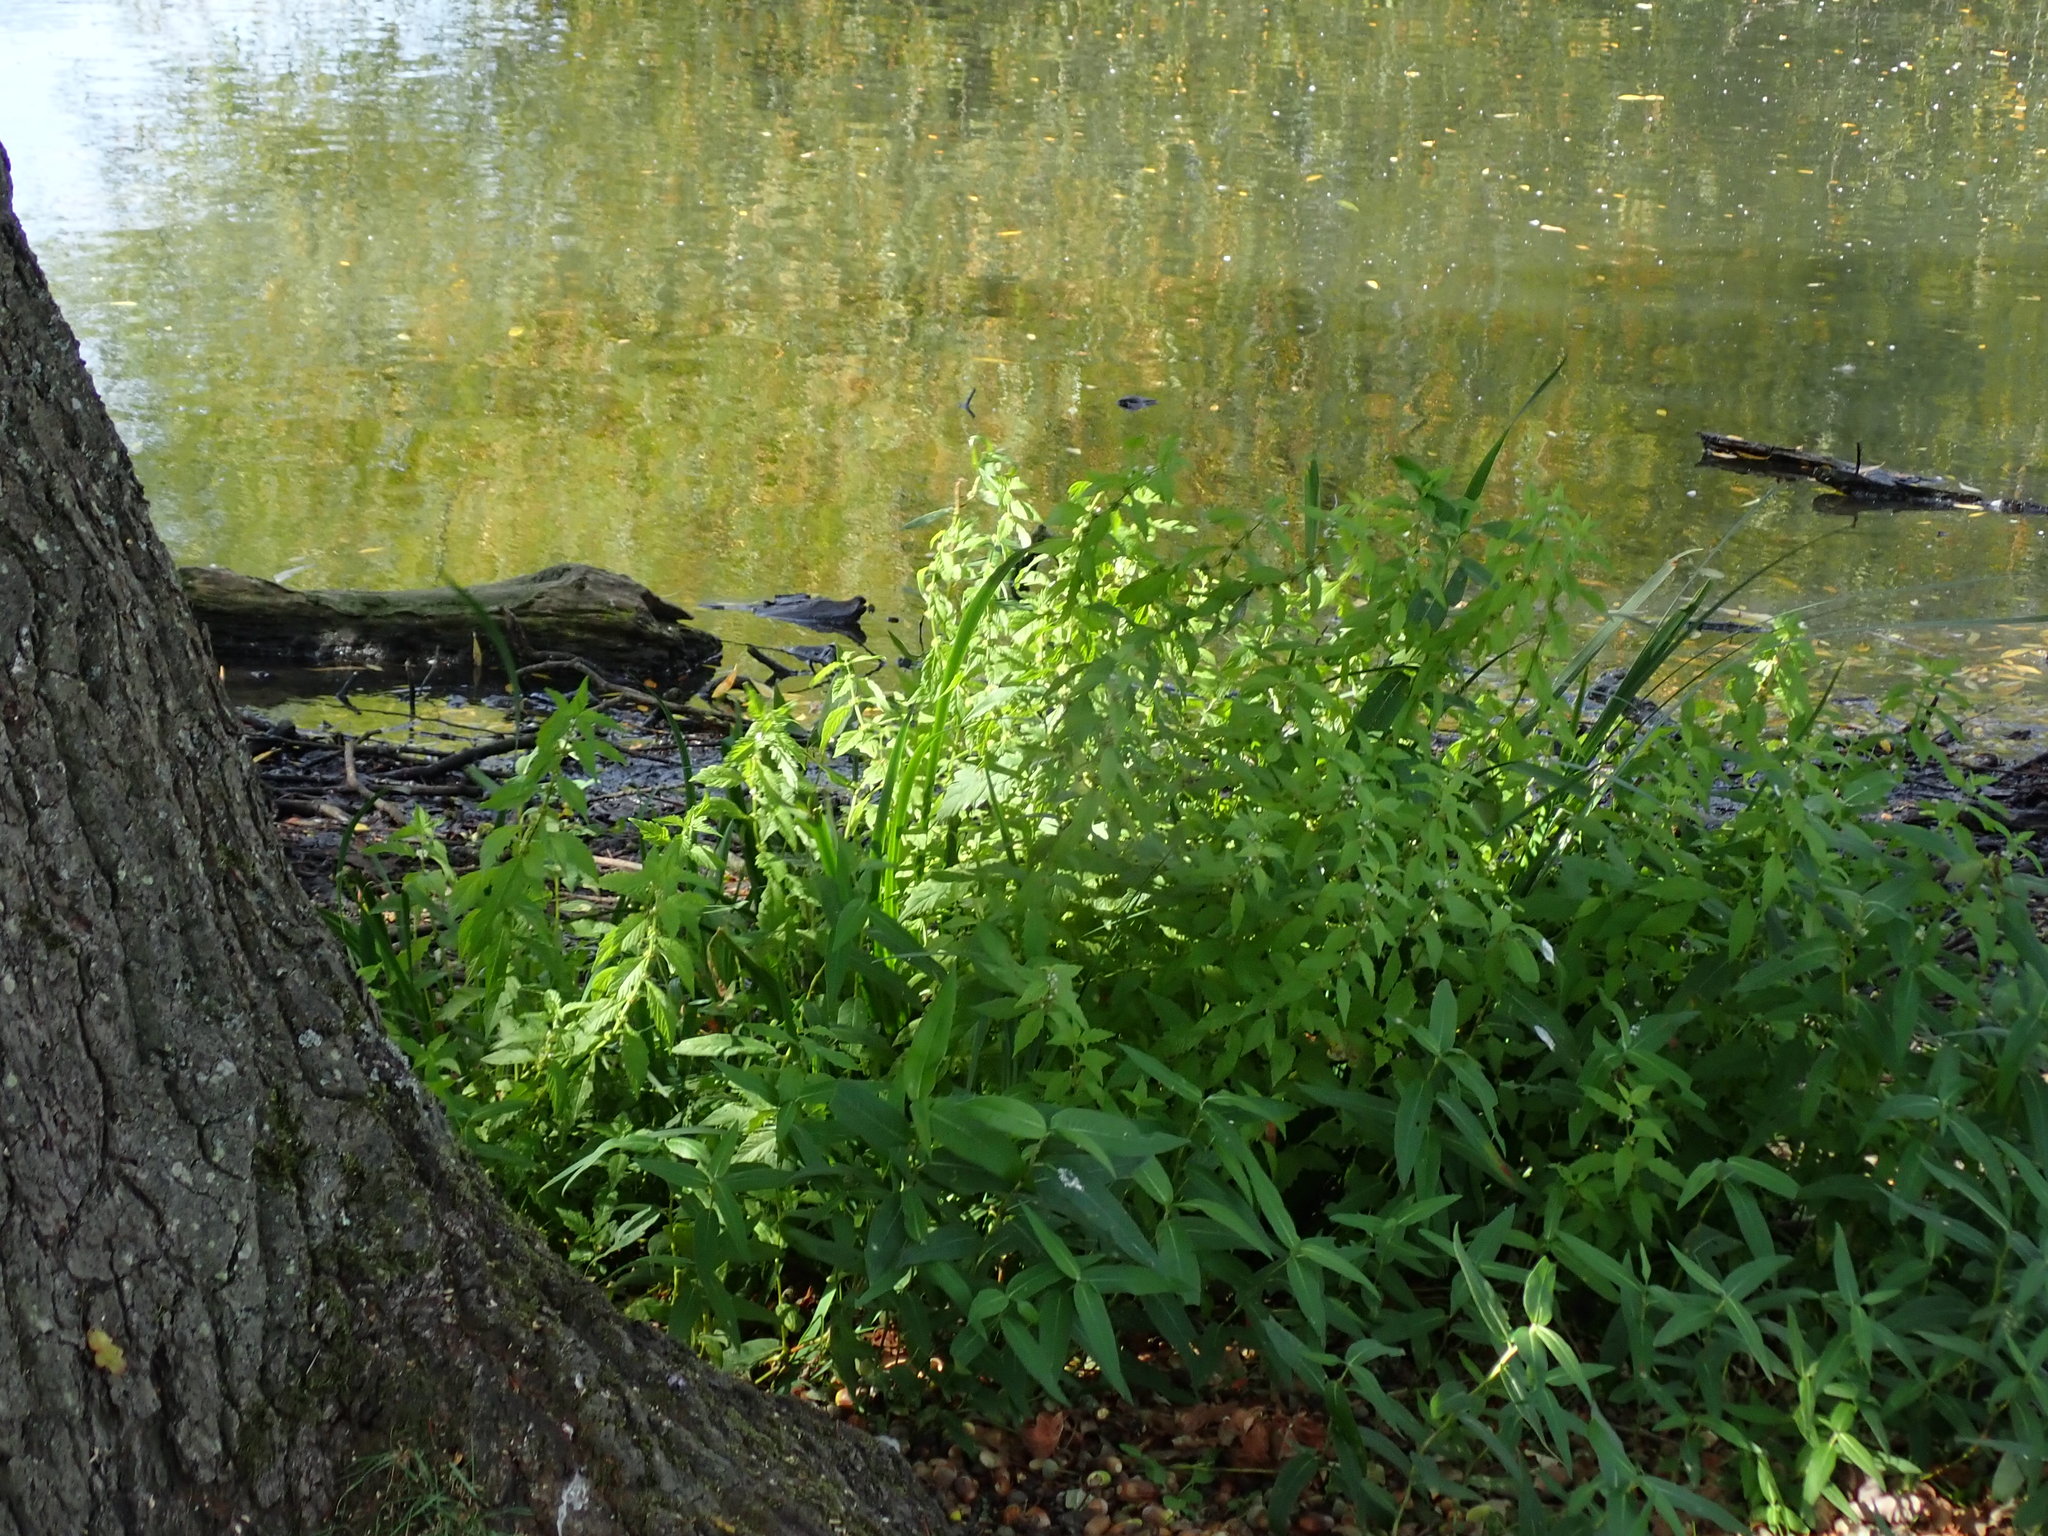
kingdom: Plantae
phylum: Tracheophyta
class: Magnoliopsida
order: Lamiales
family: Lamiaceae
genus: Lycopus
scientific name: Lycopus europaeus
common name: European bugleweed
